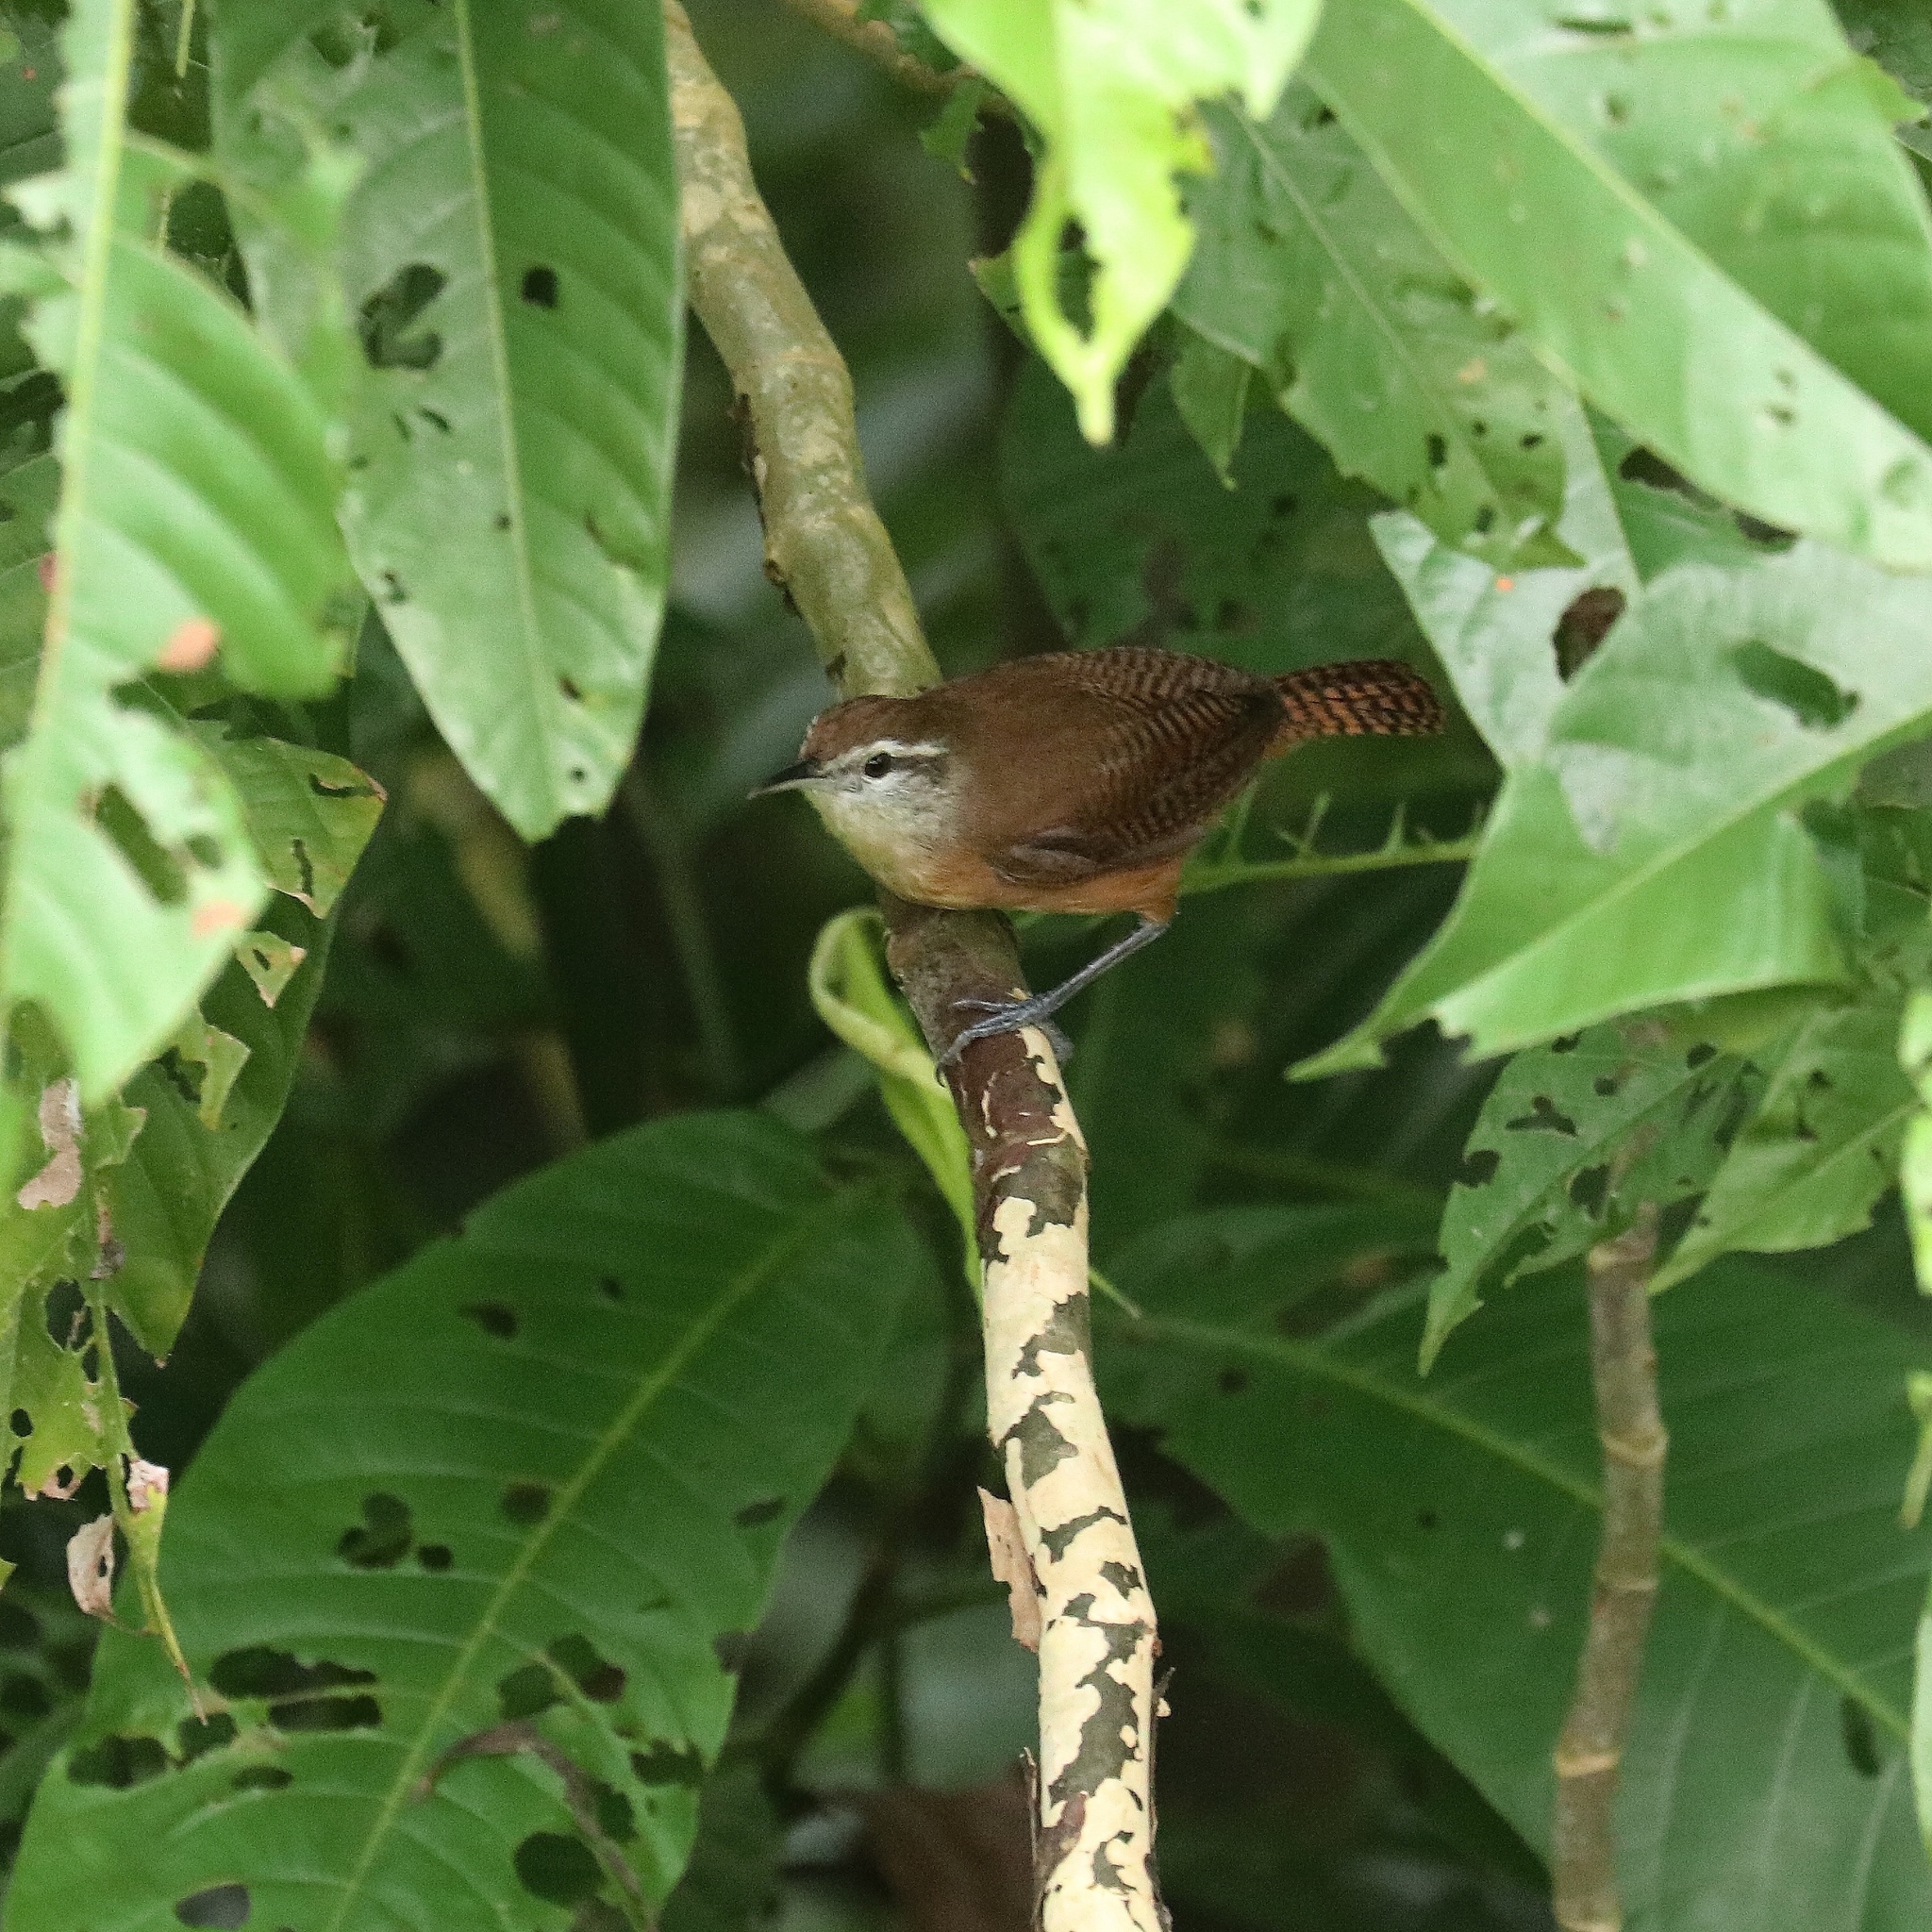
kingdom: Animalia
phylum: Chordata
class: Aves
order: Passeriformes
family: Troglodytidae
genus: Cantorchilus
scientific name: Cantorchilus leucotis
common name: Buff-breasted wren
